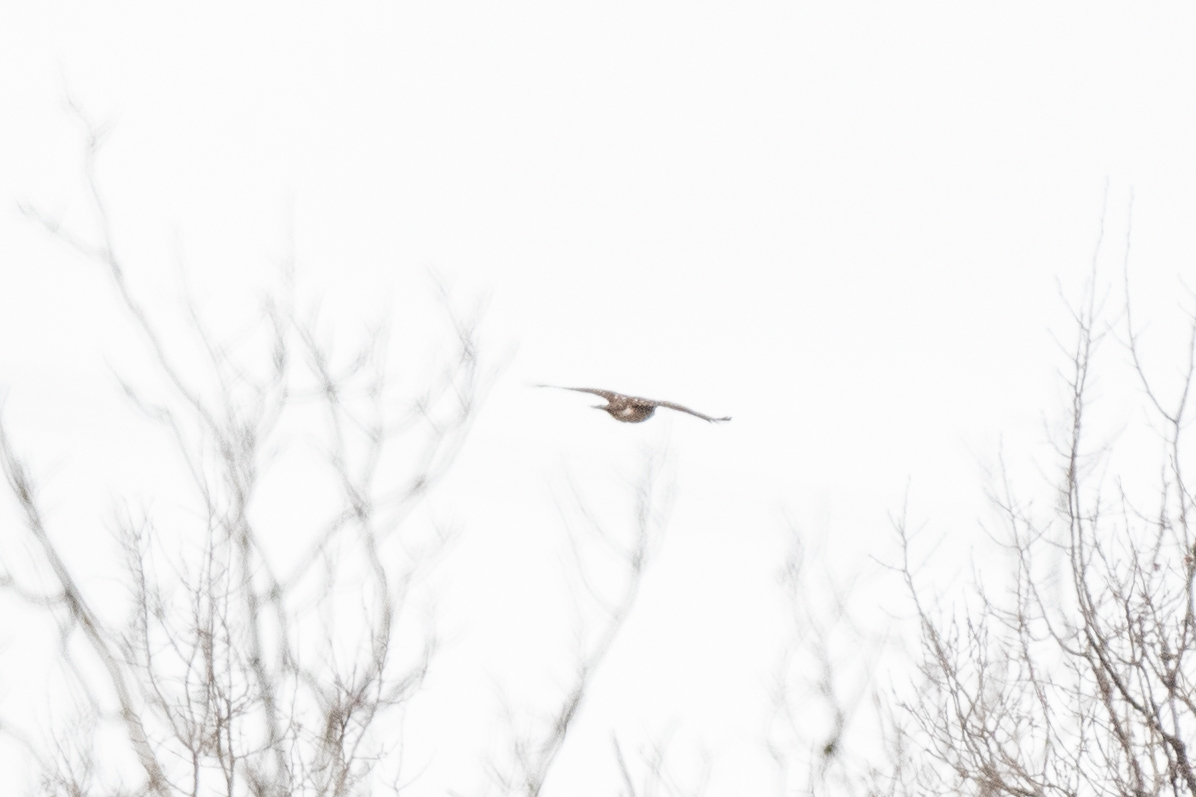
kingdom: Animalia
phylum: Chordata
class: Aves
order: Accipitriformes
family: Accipitridae
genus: Accipiter
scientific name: Accipiter gentilis
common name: Northern goshawk
